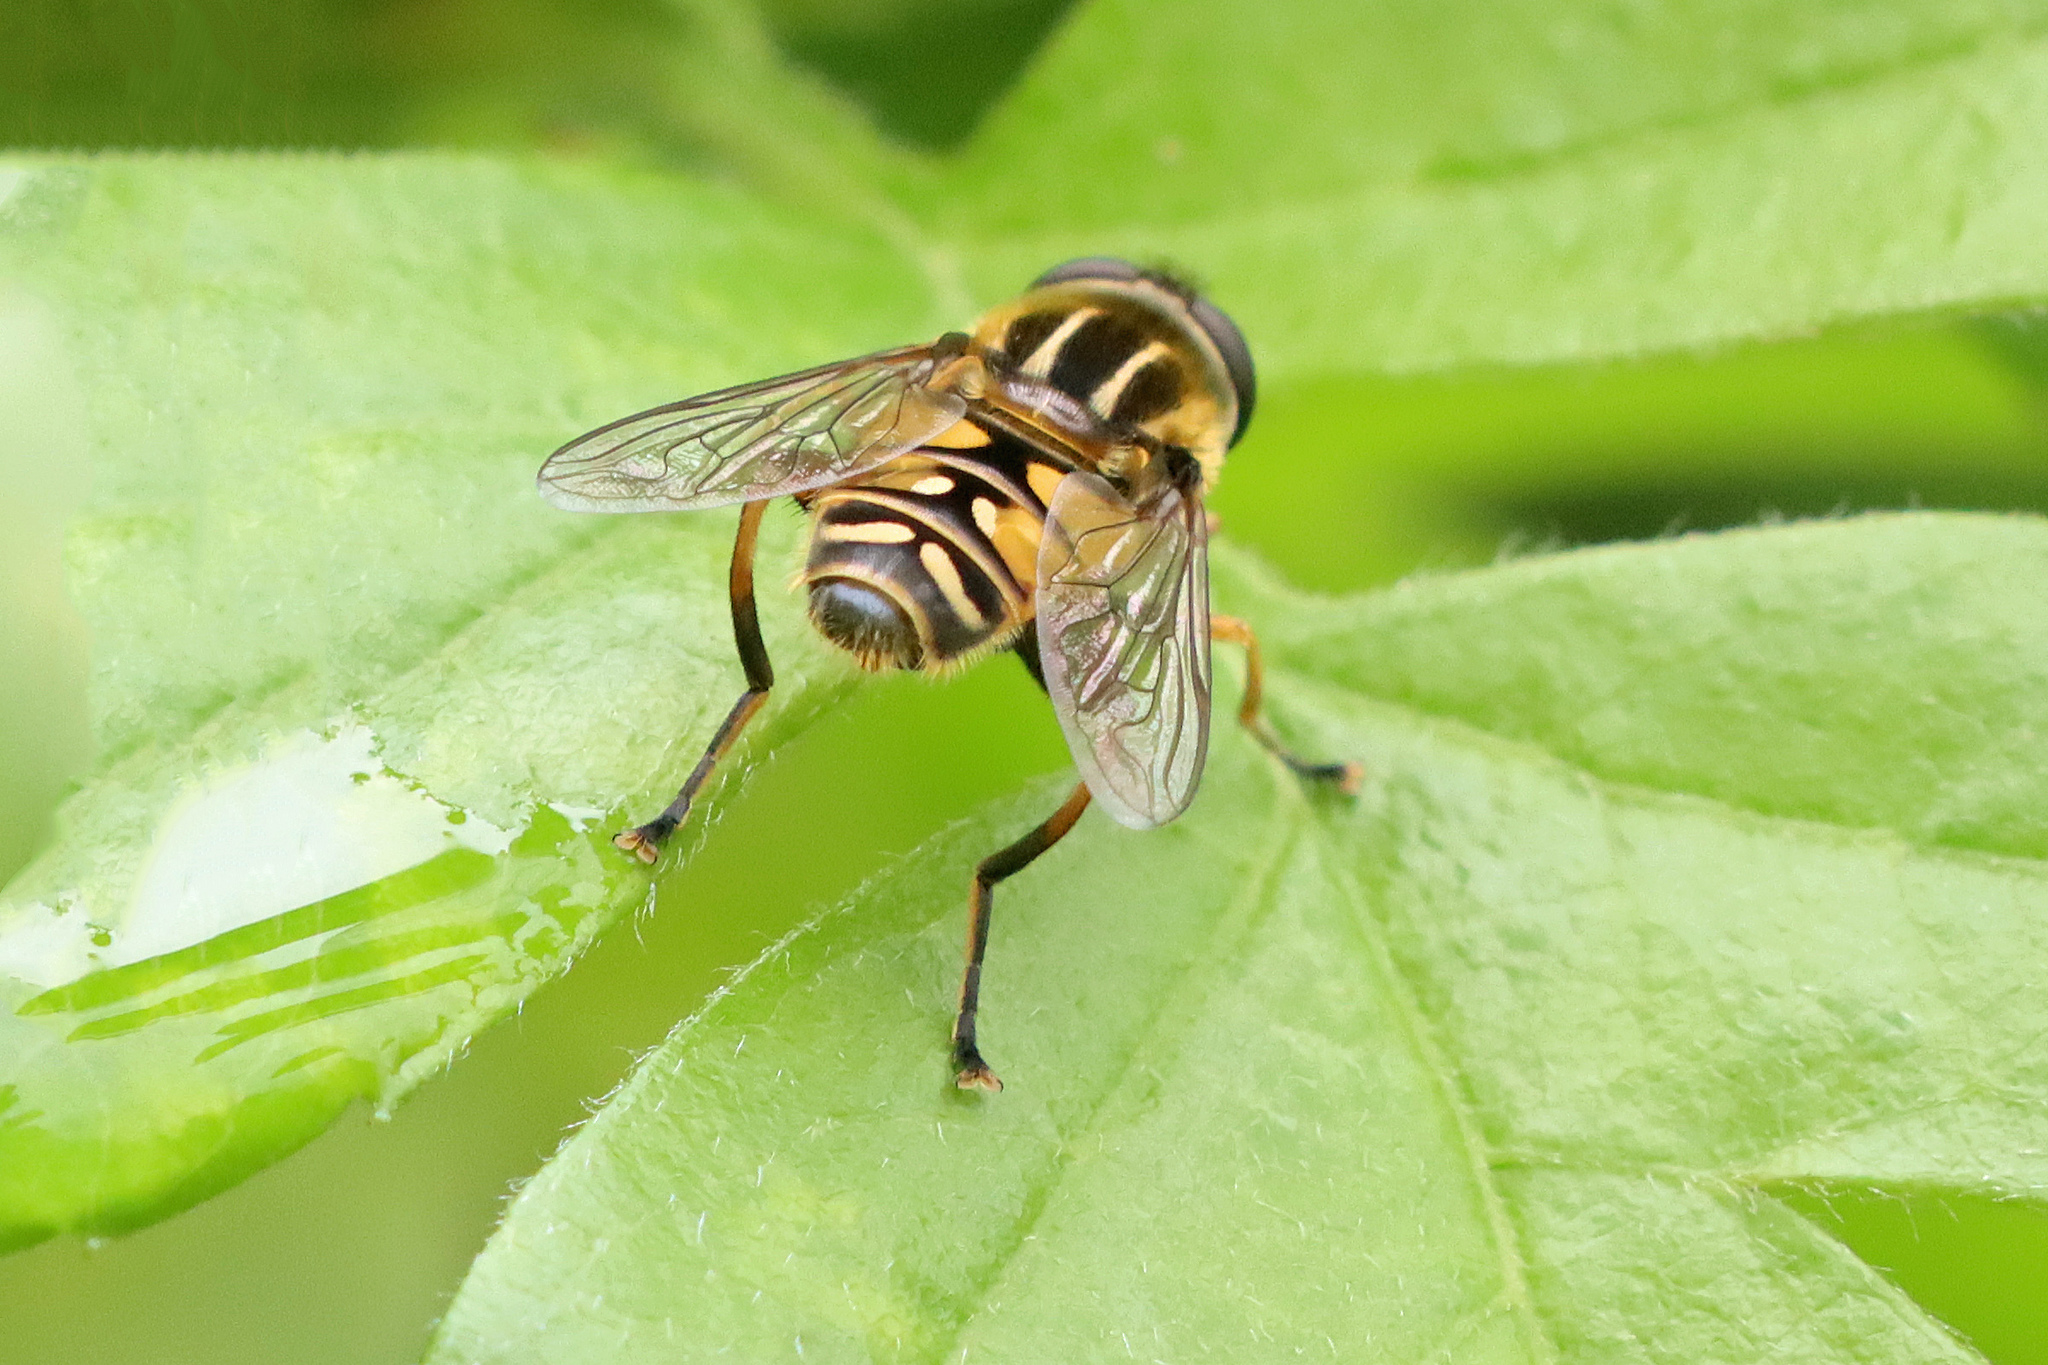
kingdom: Animalia
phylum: Arthropoda
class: Insecta
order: Diptera
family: Syrphidae
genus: Helophilus
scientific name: Helophilus pendulus
